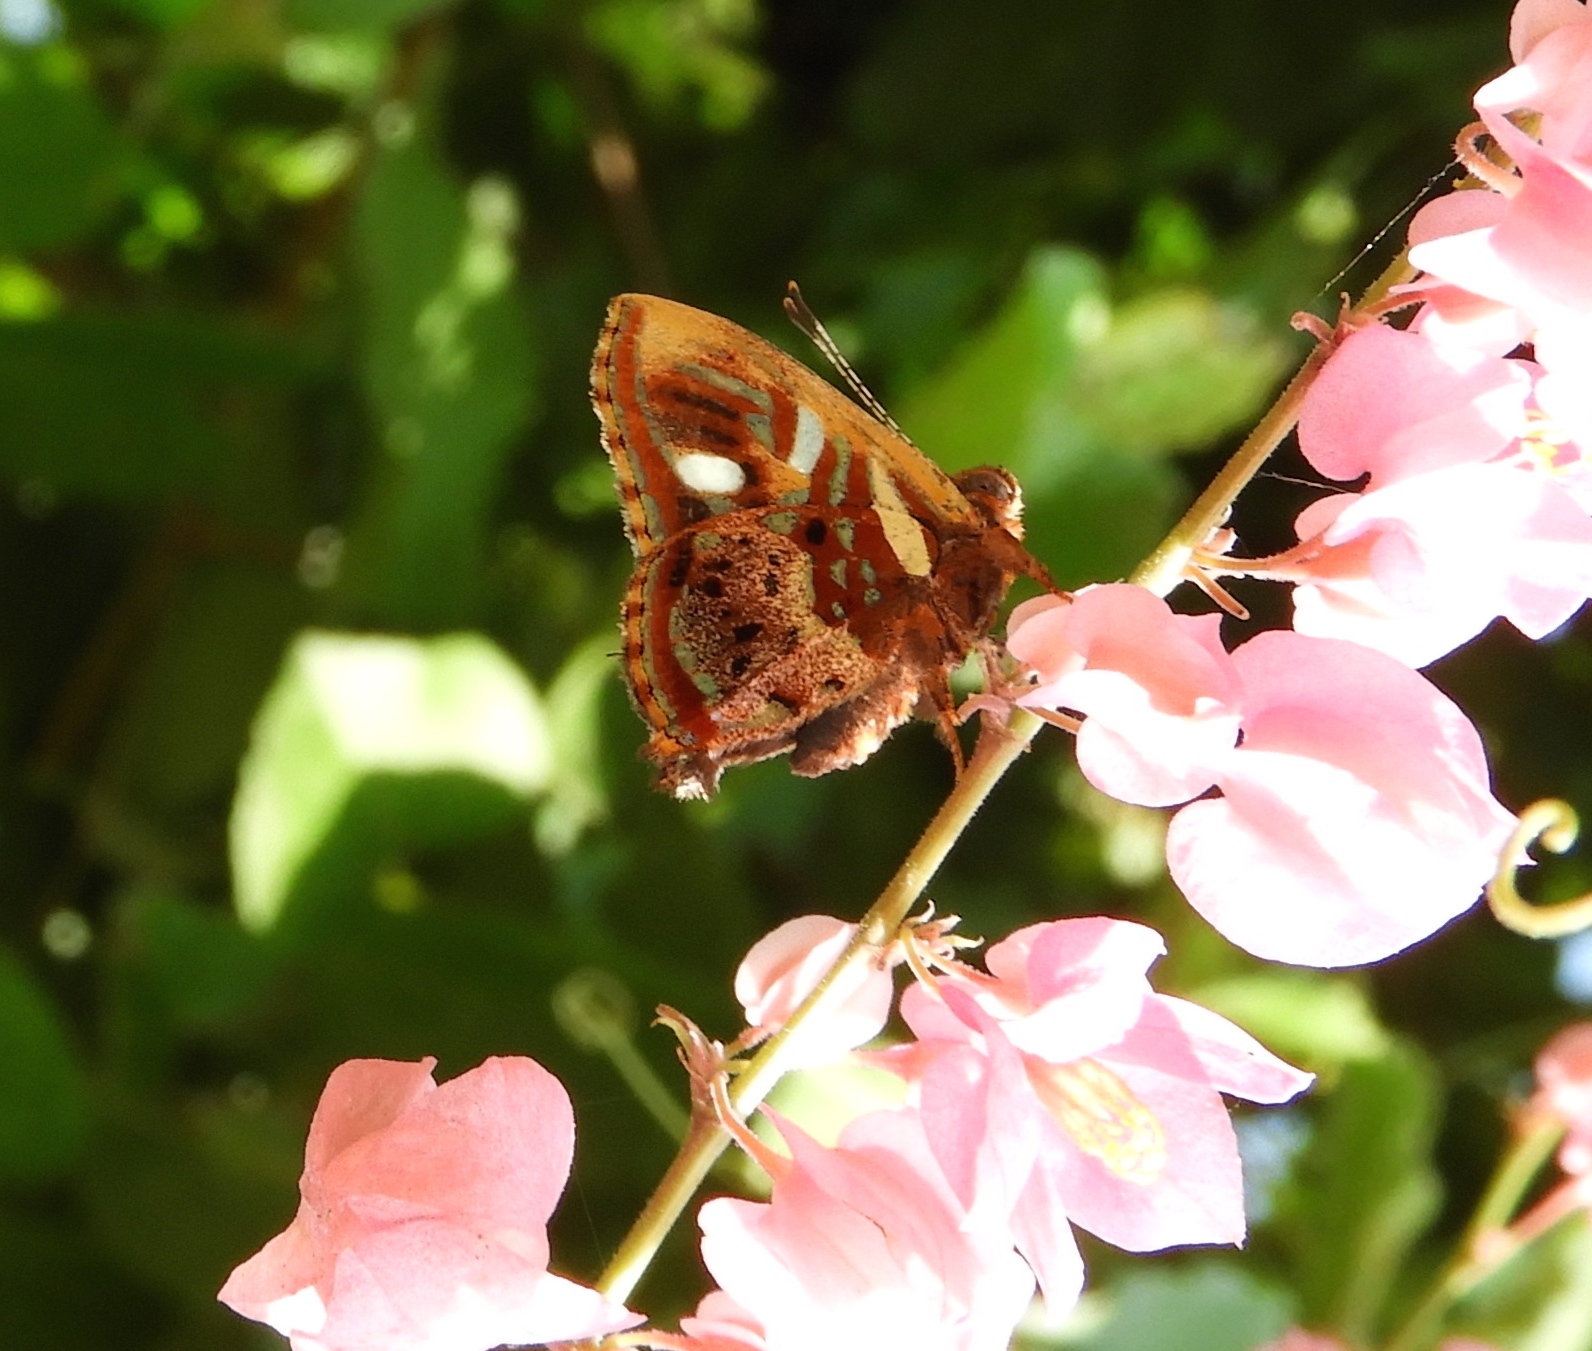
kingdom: Animalia
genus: Anteros
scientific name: Anteros carausius
